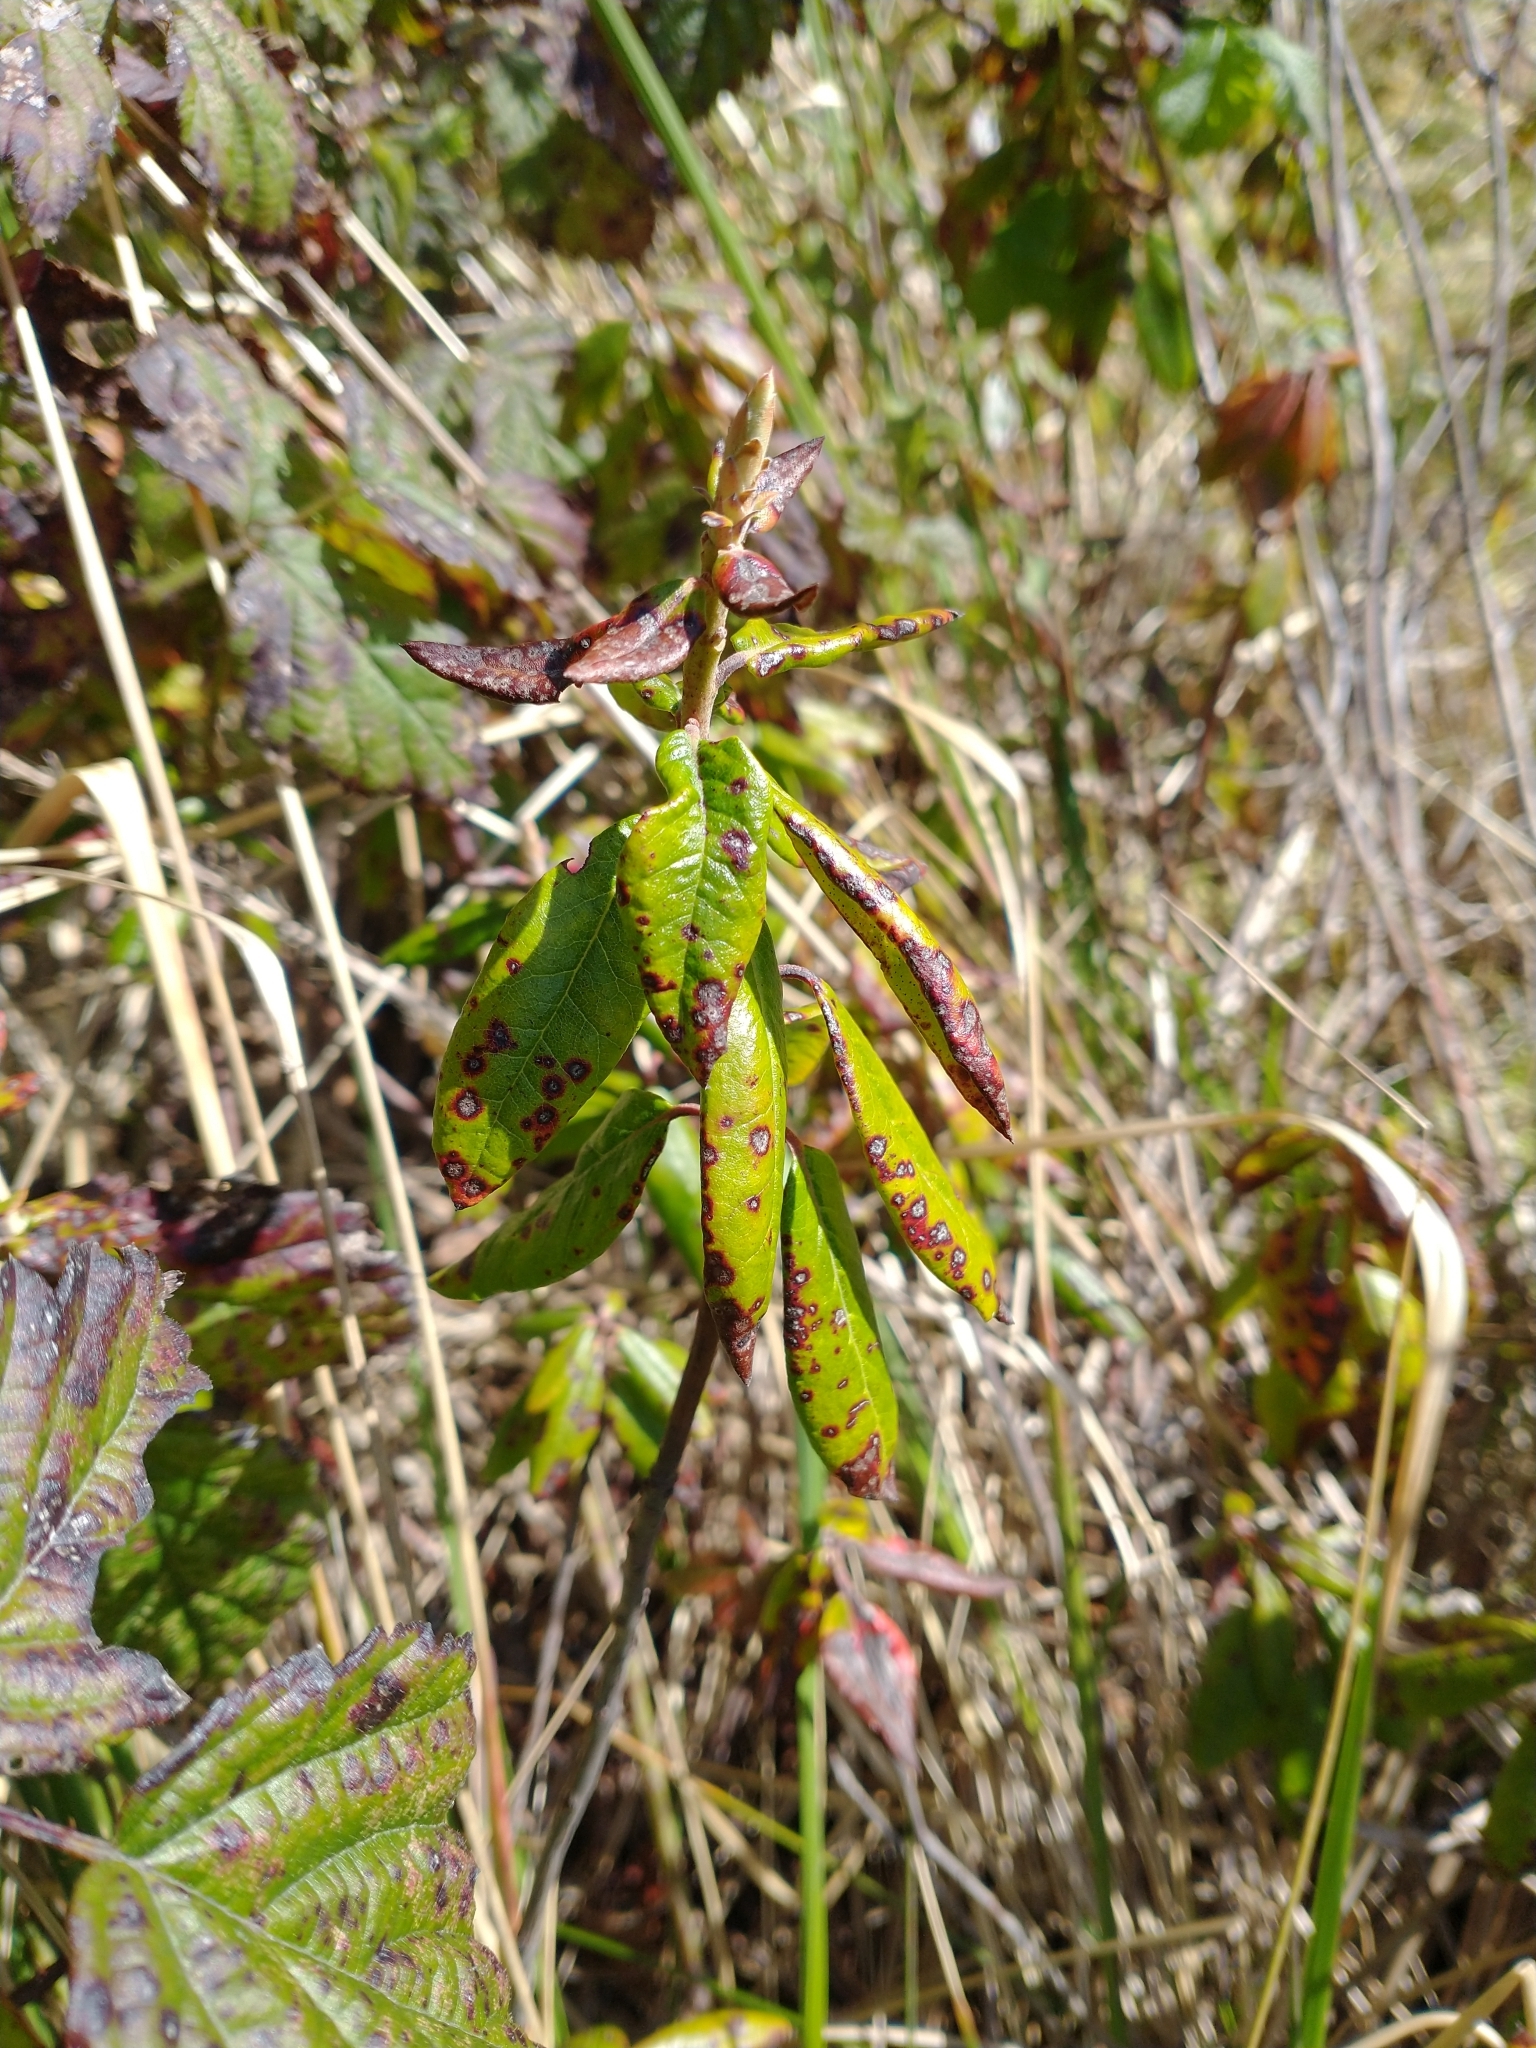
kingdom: Plantae
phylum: Tracheophyta
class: Magnoliopsida
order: Ericales
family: Ericaceae
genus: Rhododendron
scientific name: Rhododendron columbianum
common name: Western labrador tea
